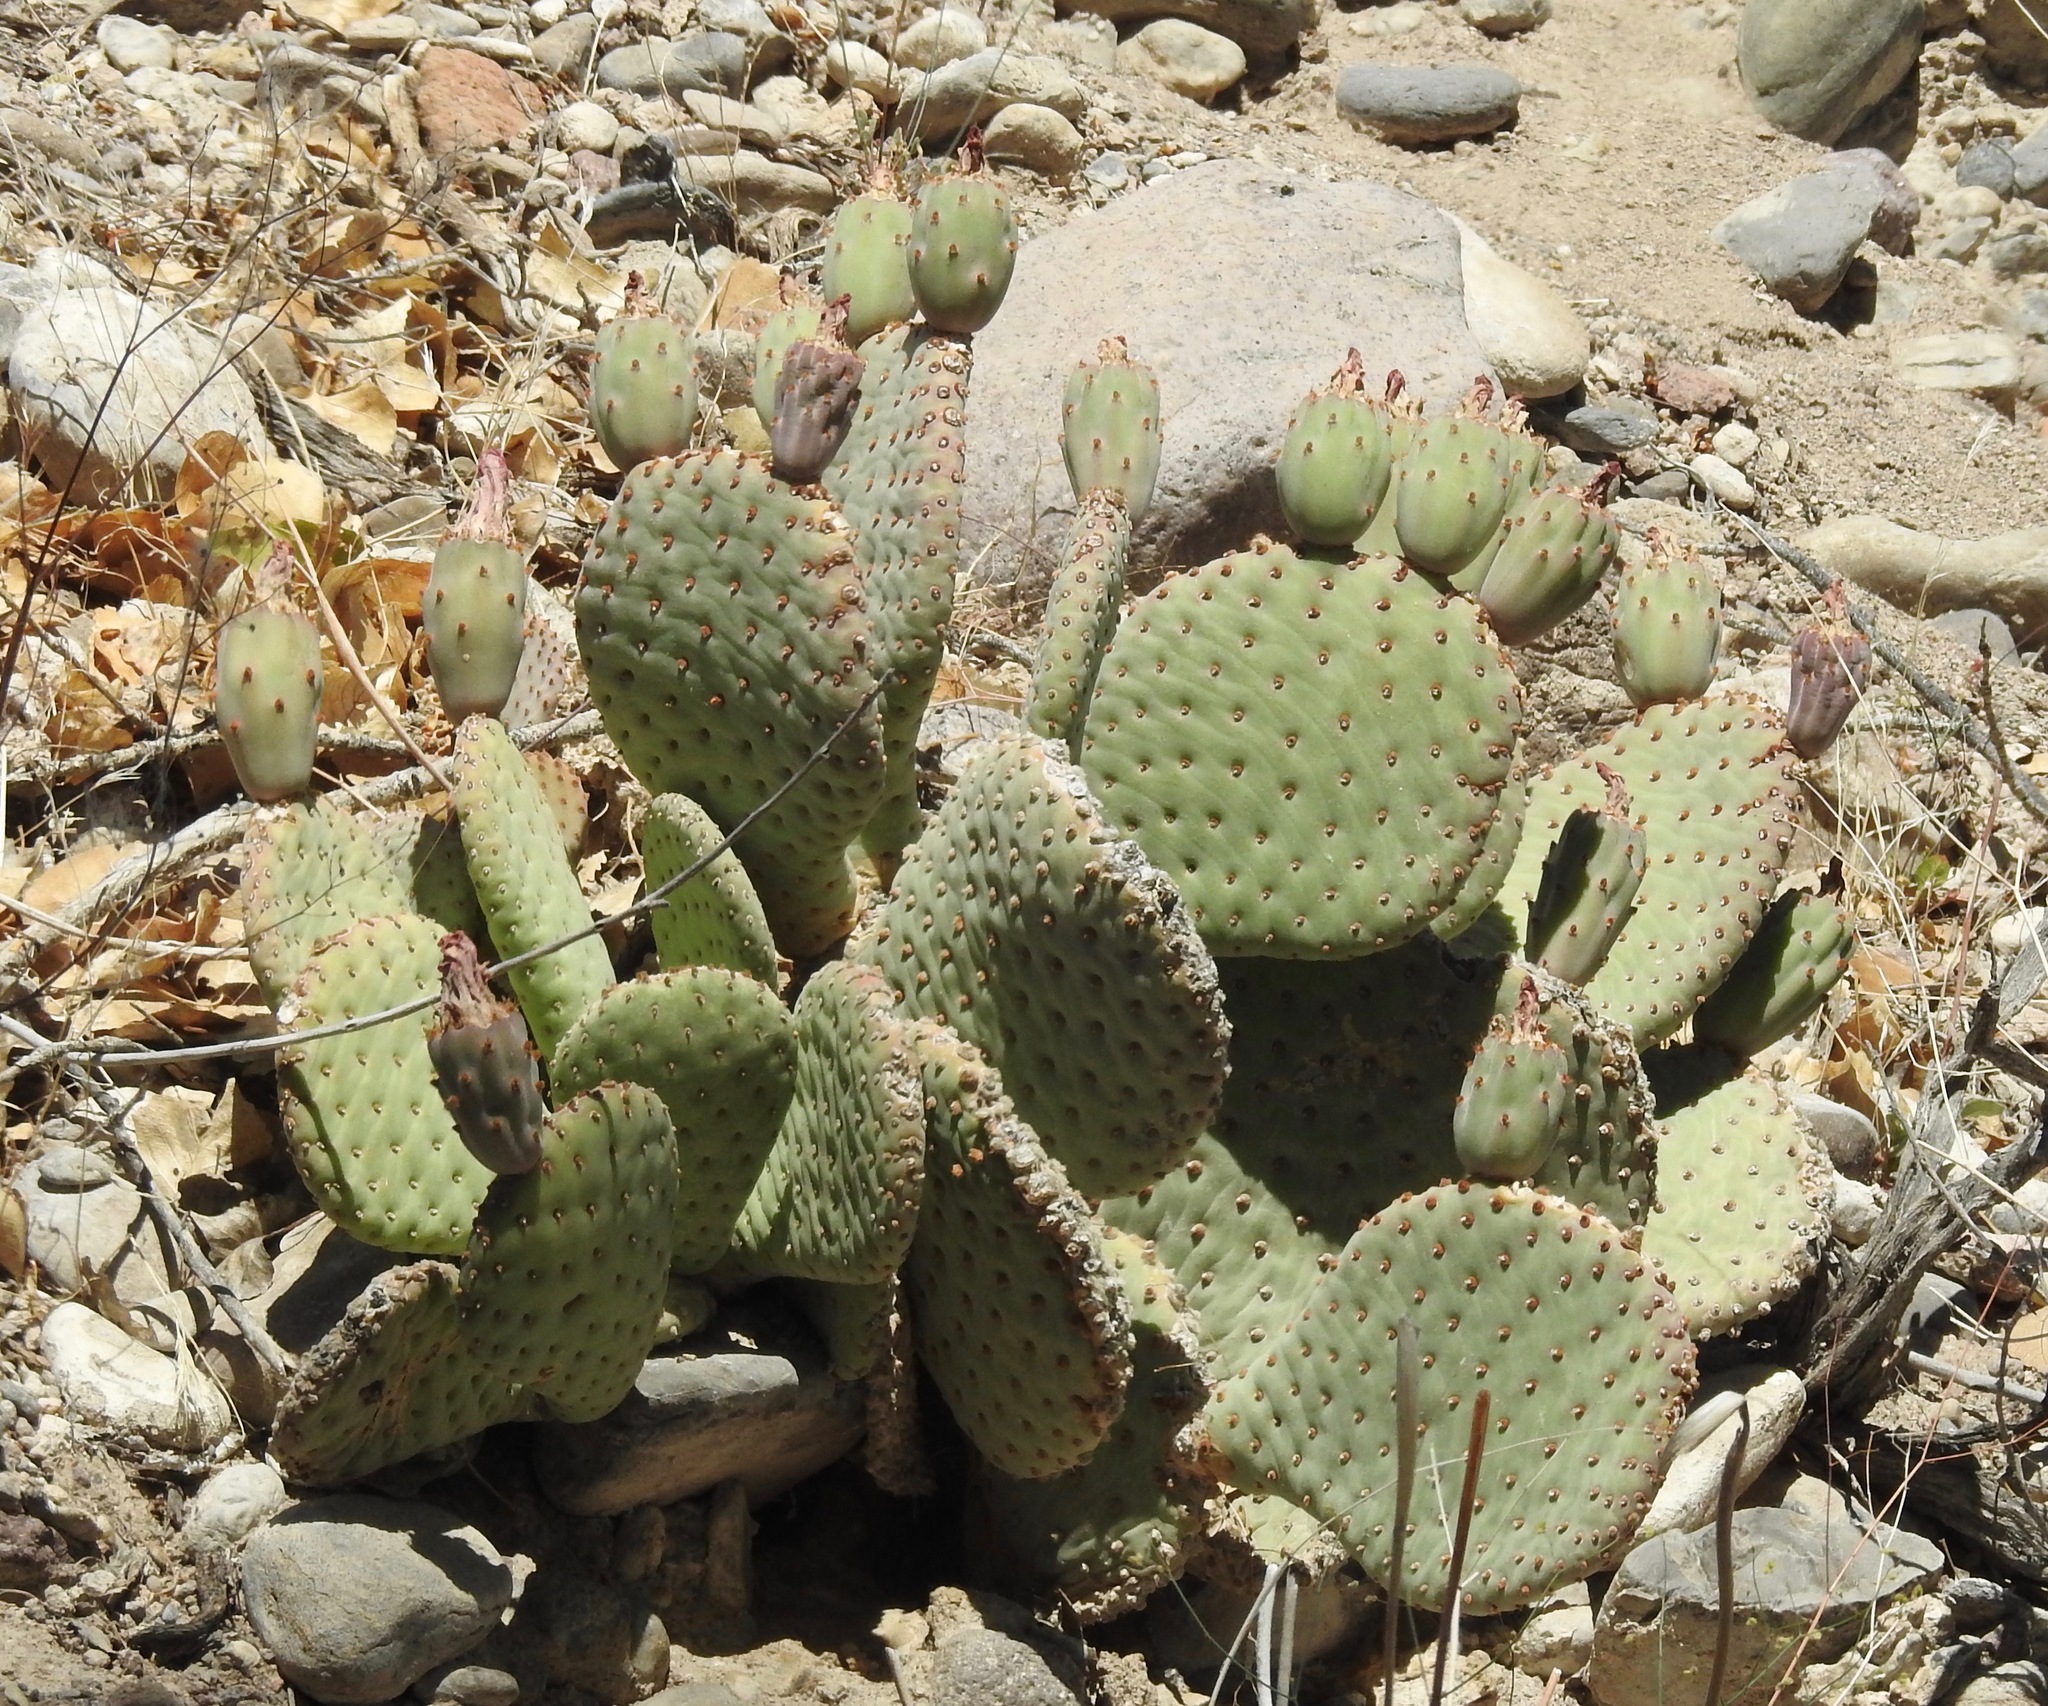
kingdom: Plantae
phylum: Tracheophyta
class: Magnoliopsida
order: Caryophyllales
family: Cactaceae
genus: Opuntia
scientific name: Opuntia basilaris
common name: Beavertail prickly-pear
